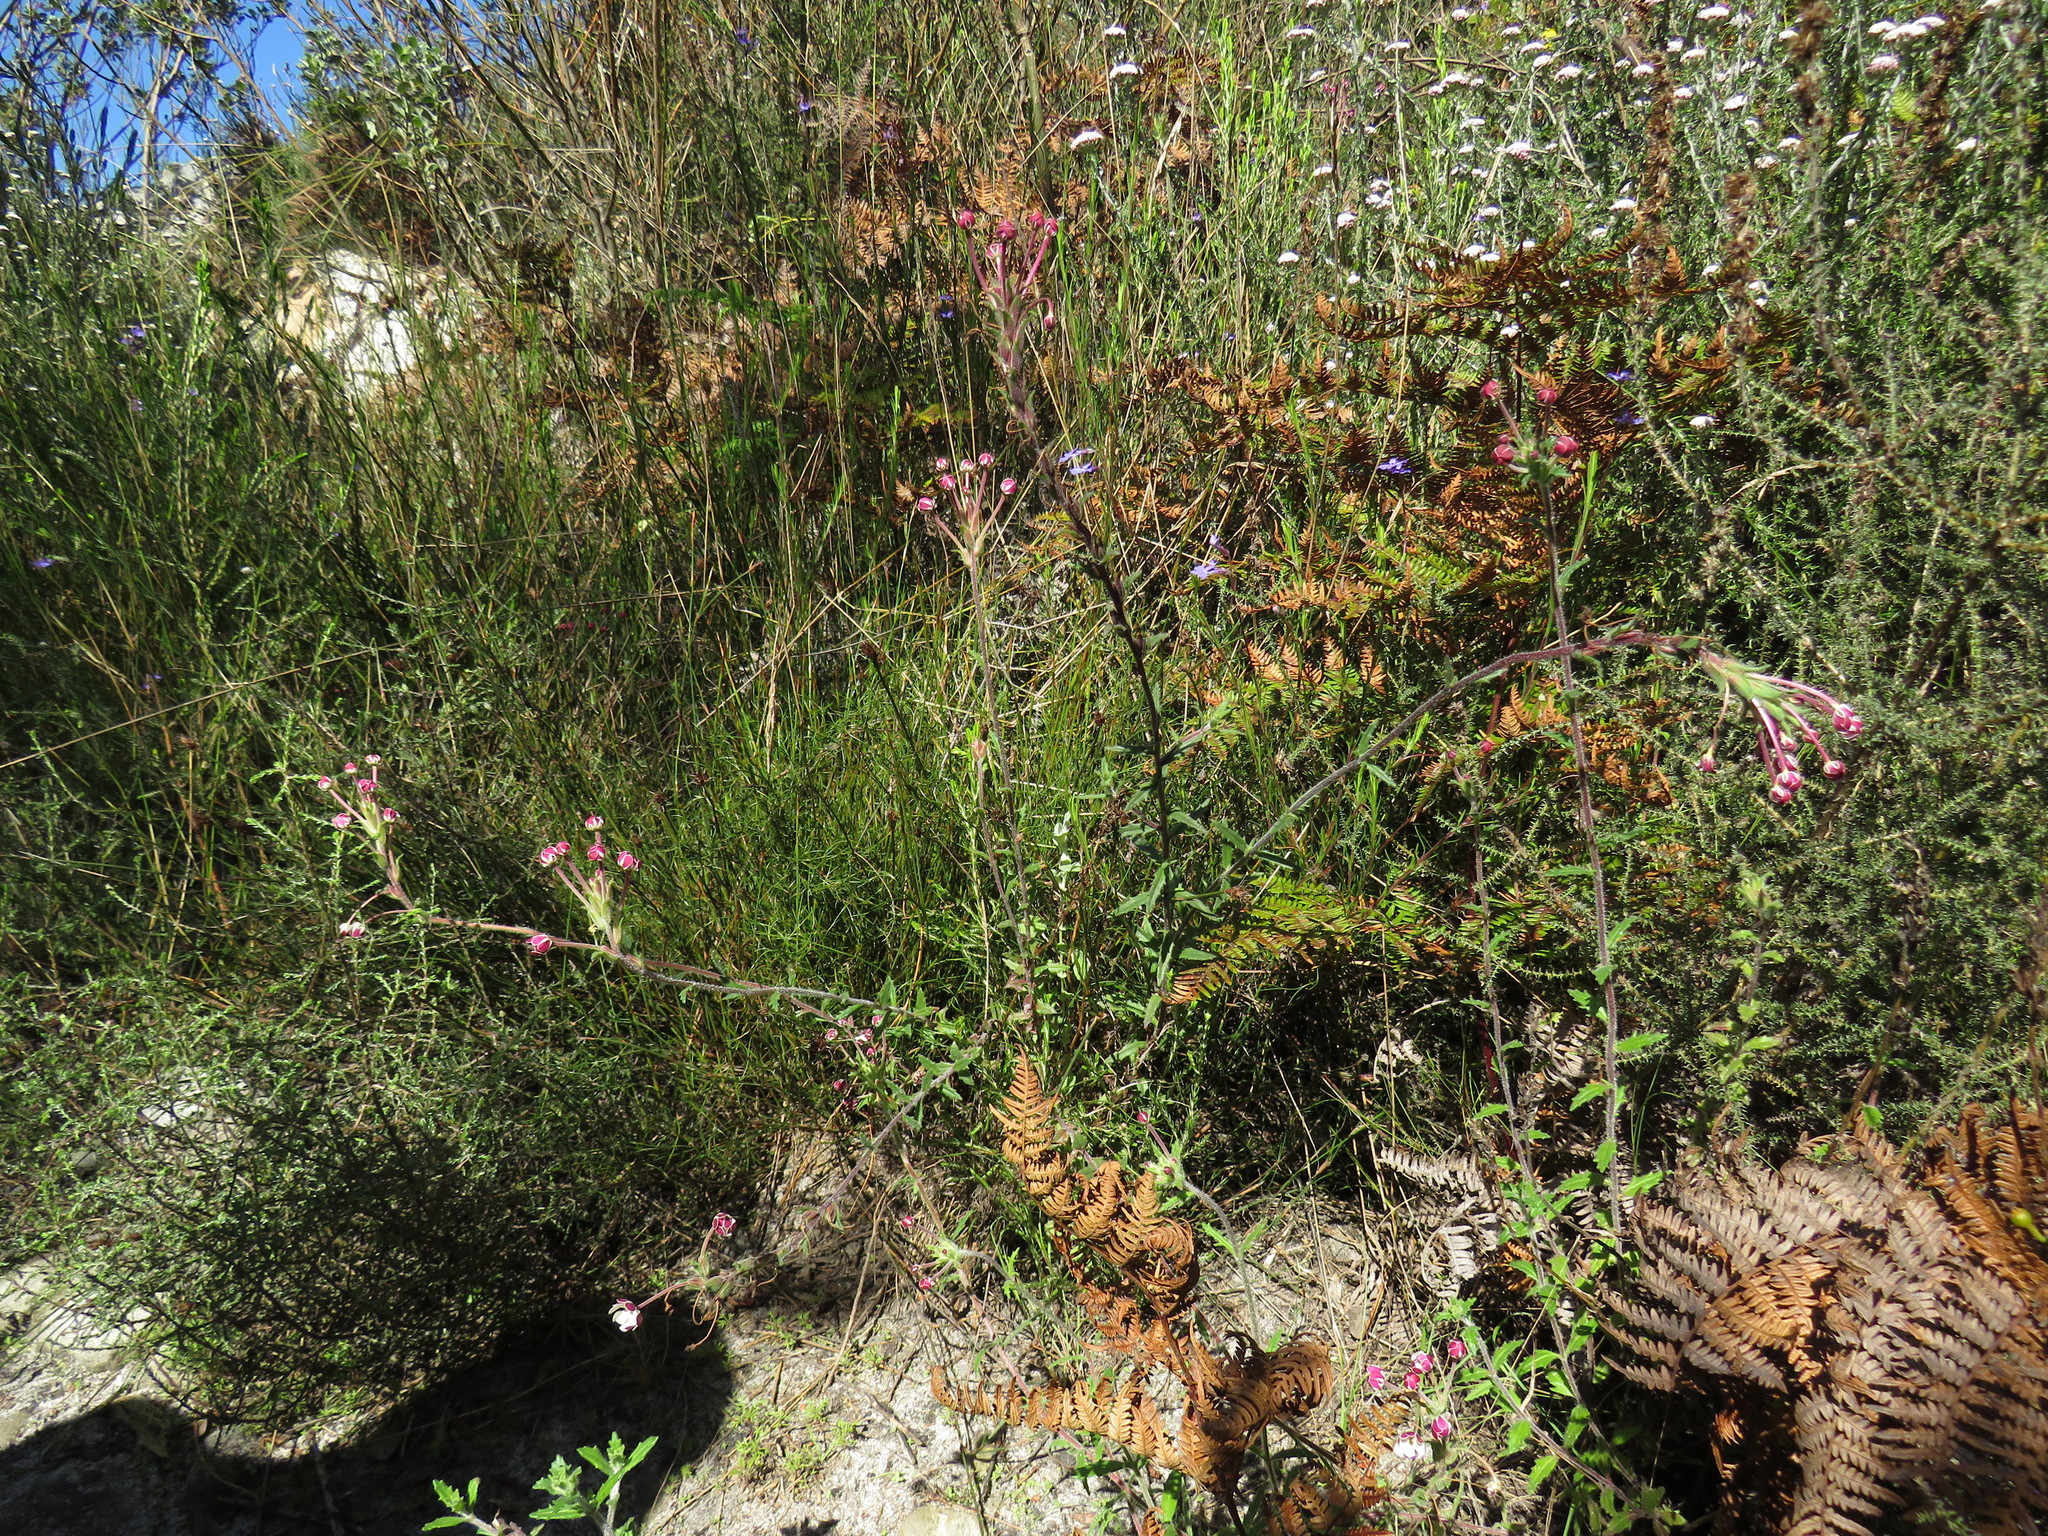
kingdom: Plantae
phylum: Tracheophyta
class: Magnoliopsida
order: Lamiales
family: Scrophulariaceae
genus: Zaluzianskya
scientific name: Zaluzianskya capensis
